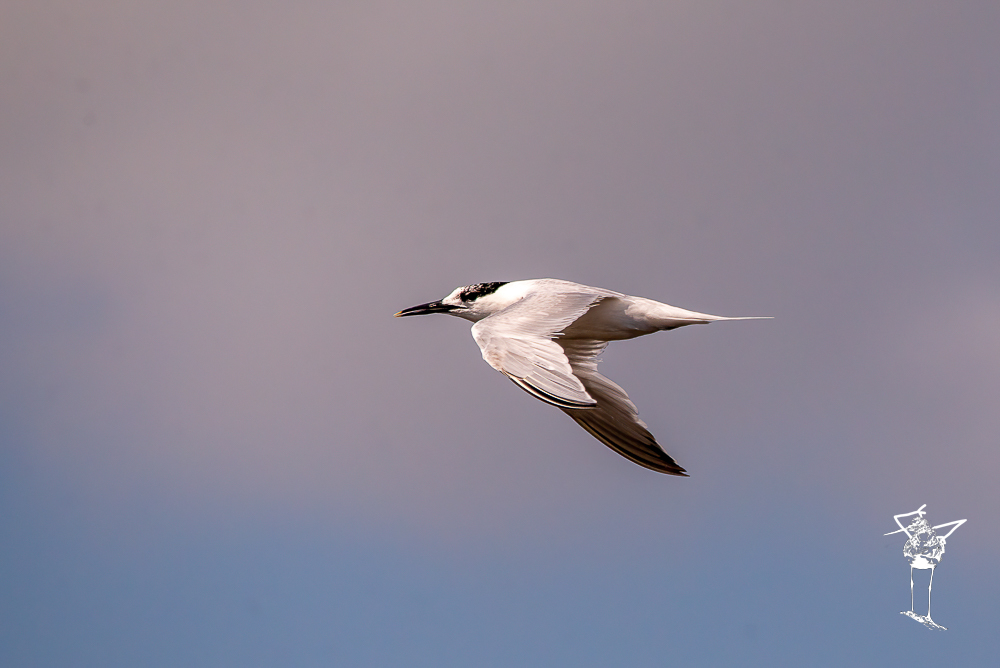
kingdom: Animalia
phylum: Chordata
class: Aves
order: Charadriiformes
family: Laridae
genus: Thalasseus
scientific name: Thalasseus sandvicensis
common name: Sandwich tern
